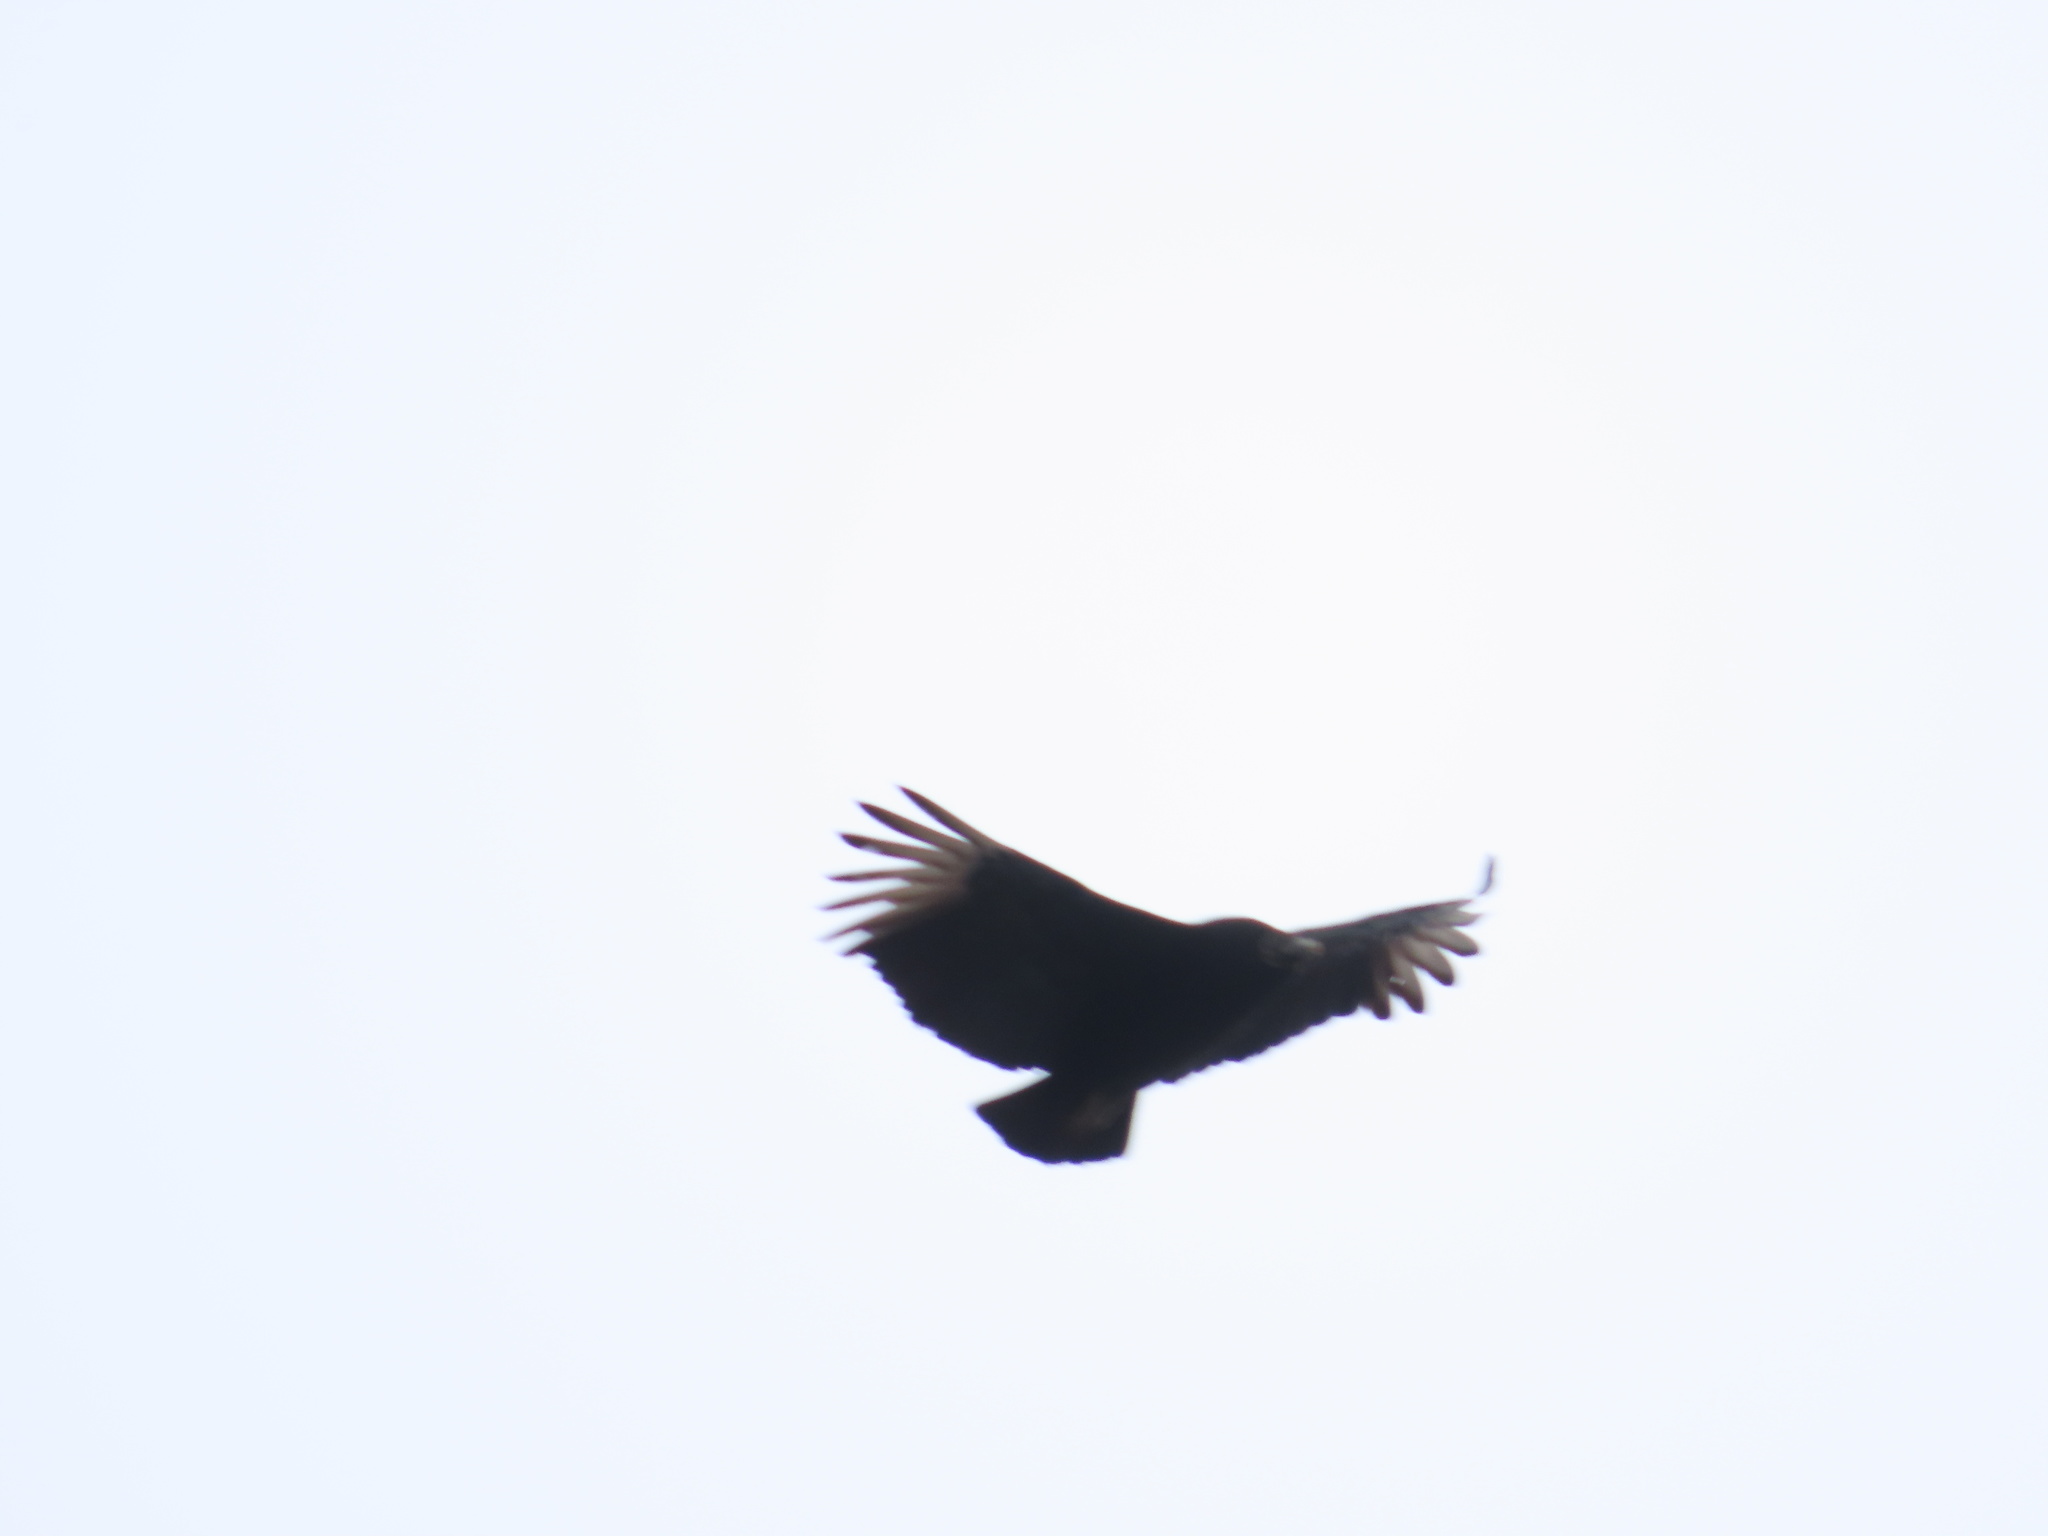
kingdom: Animalia
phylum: Chordata
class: Aves
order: Accipitriformes
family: Cathartidae
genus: Coragyps
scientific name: Coragyps atratus
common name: Black vulture
